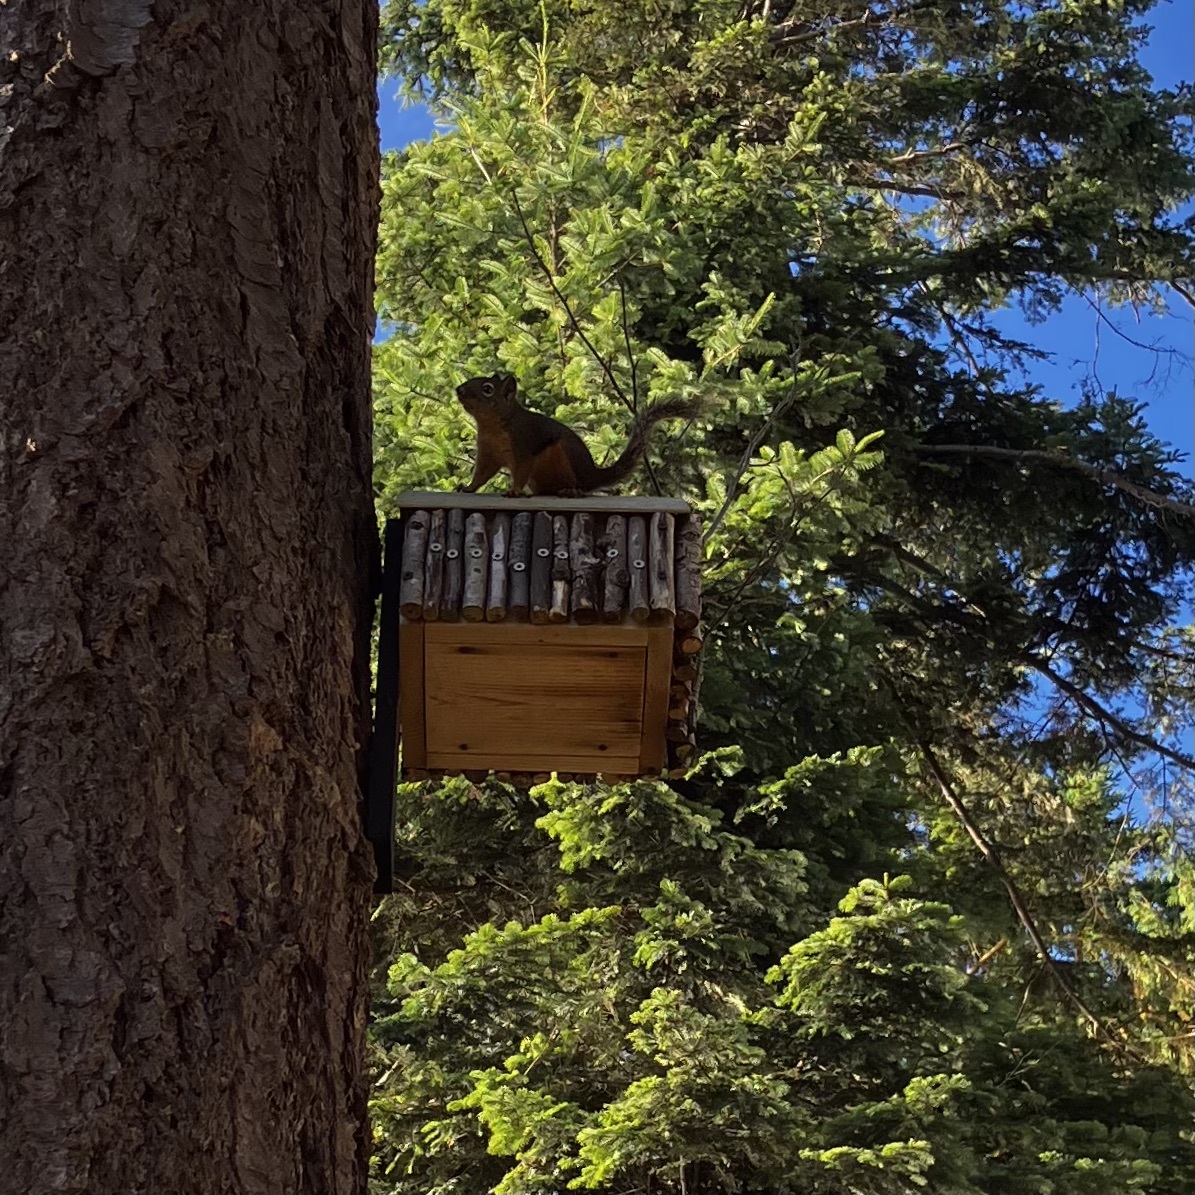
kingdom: Animalia
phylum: Chordata
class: Mammalia
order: Rodentia
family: Sciuridae
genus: Tamiasciurus
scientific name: Tamiasciurus douglasii
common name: Douglas's squirrel
